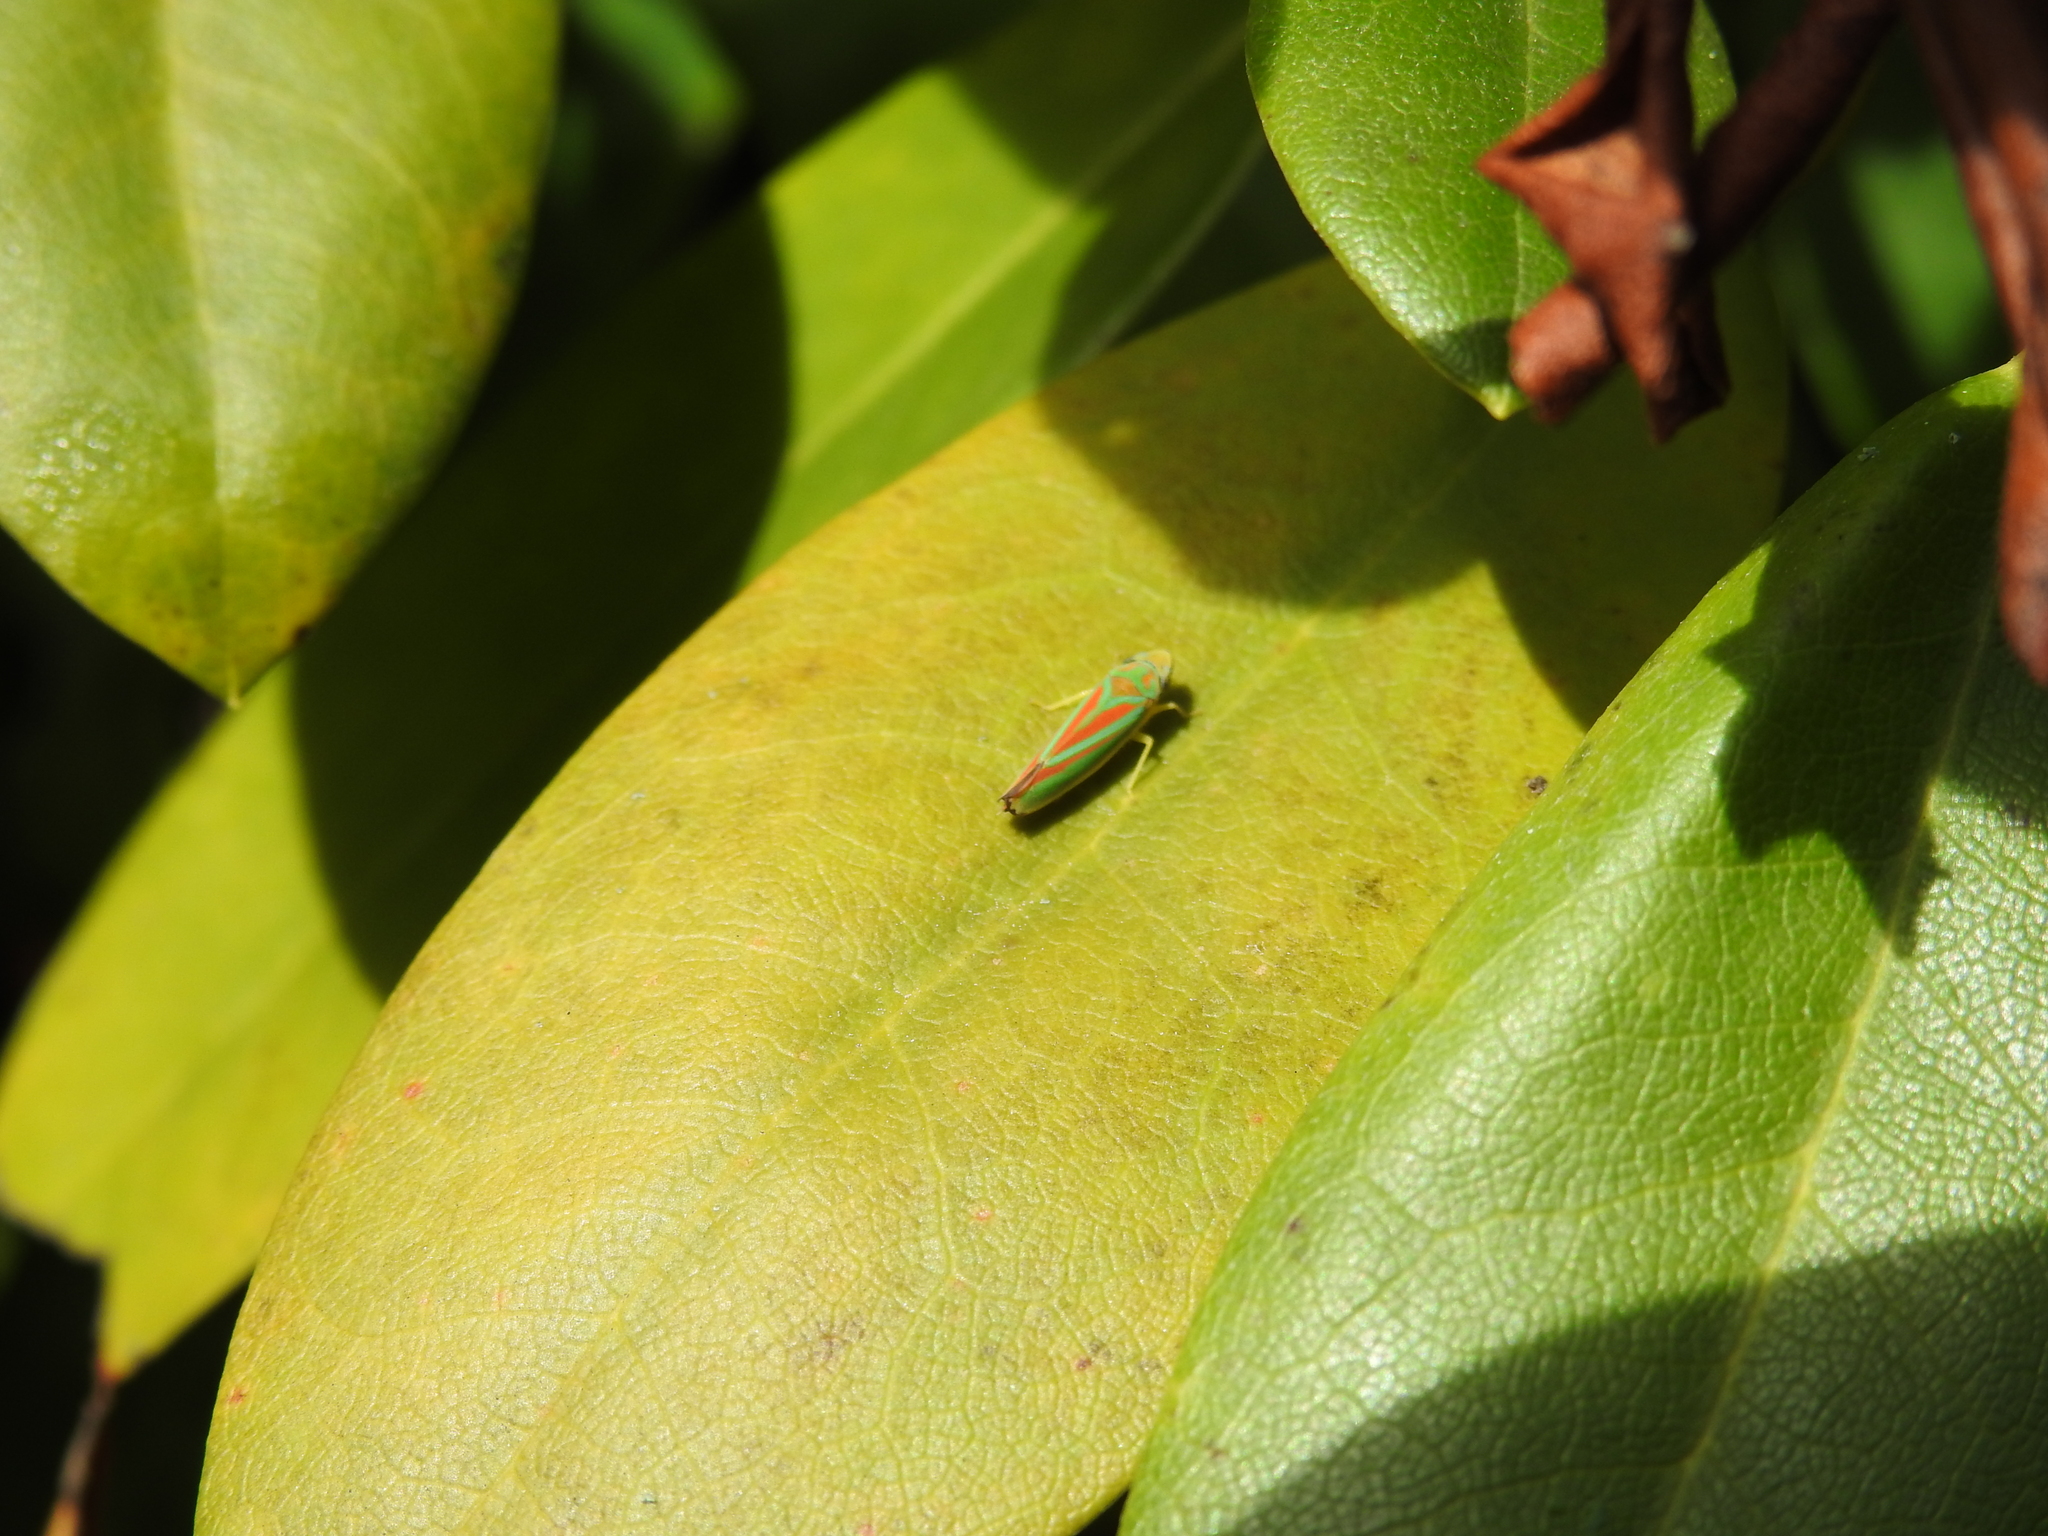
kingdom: Animalia
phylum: Arthropoda
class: Insecta
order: Hemiptera
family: Cicadellidae
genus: Graphocephala
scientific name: Graphocephala fennahi
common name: Rhododendron leafhopper
